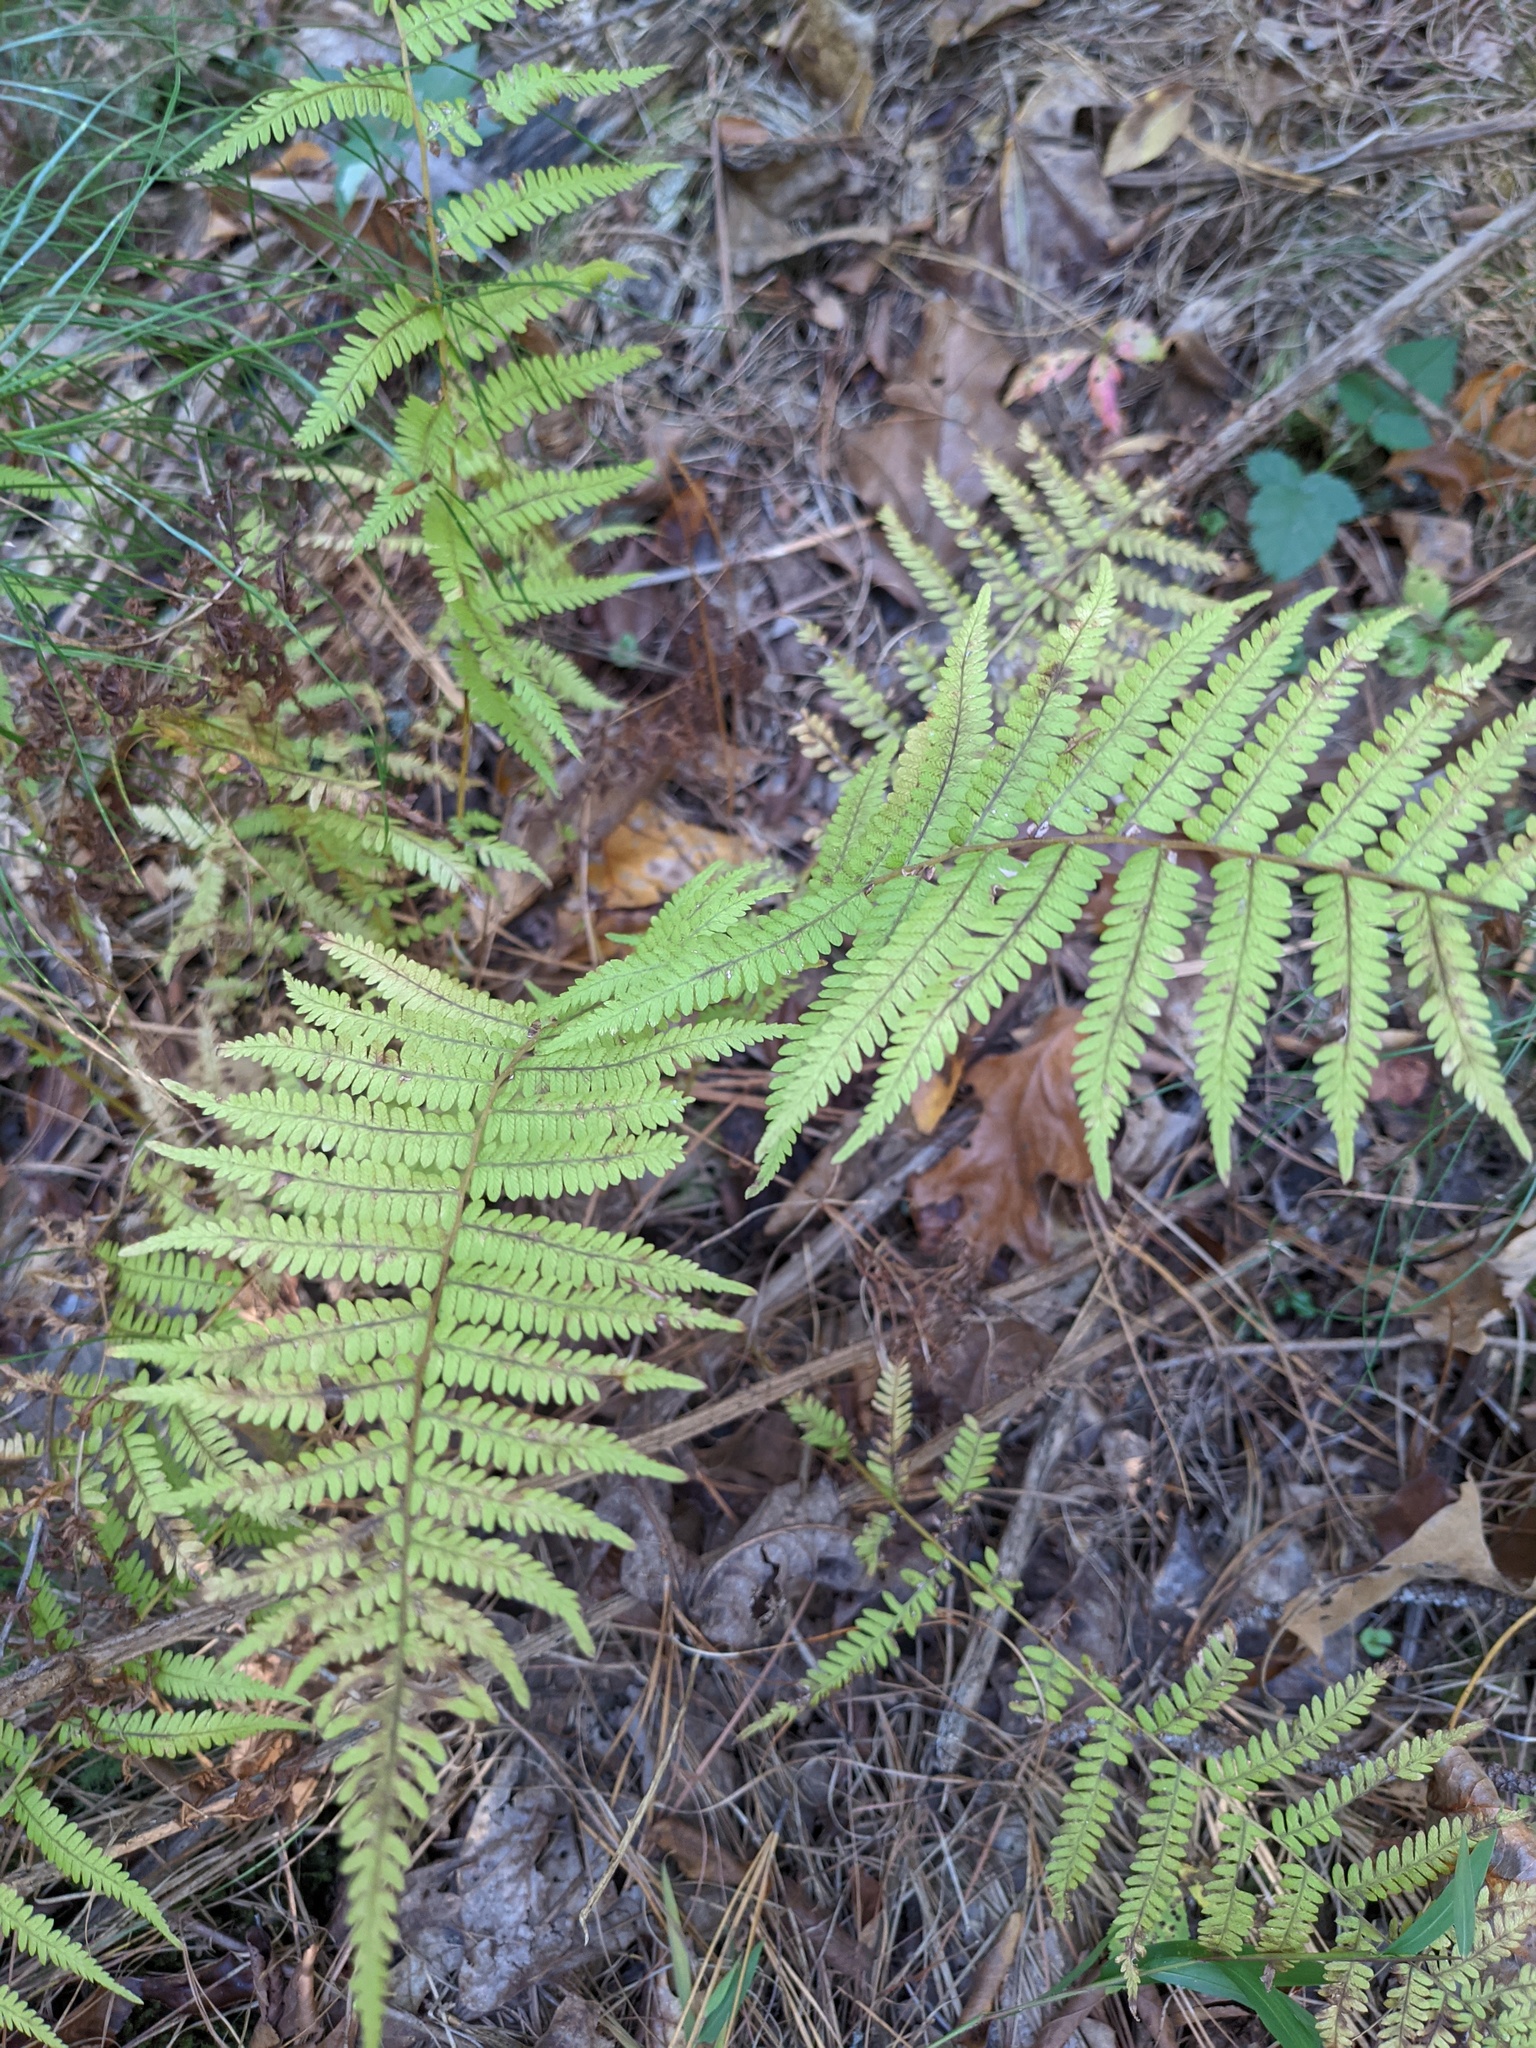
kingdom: Plantae
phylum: Tracheophyta
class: Polypodiopsida
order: Polypodiales
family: Thelypteridaceae
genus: Amauropelta
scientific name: Amauropelta noveboracensis
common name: New york fern
